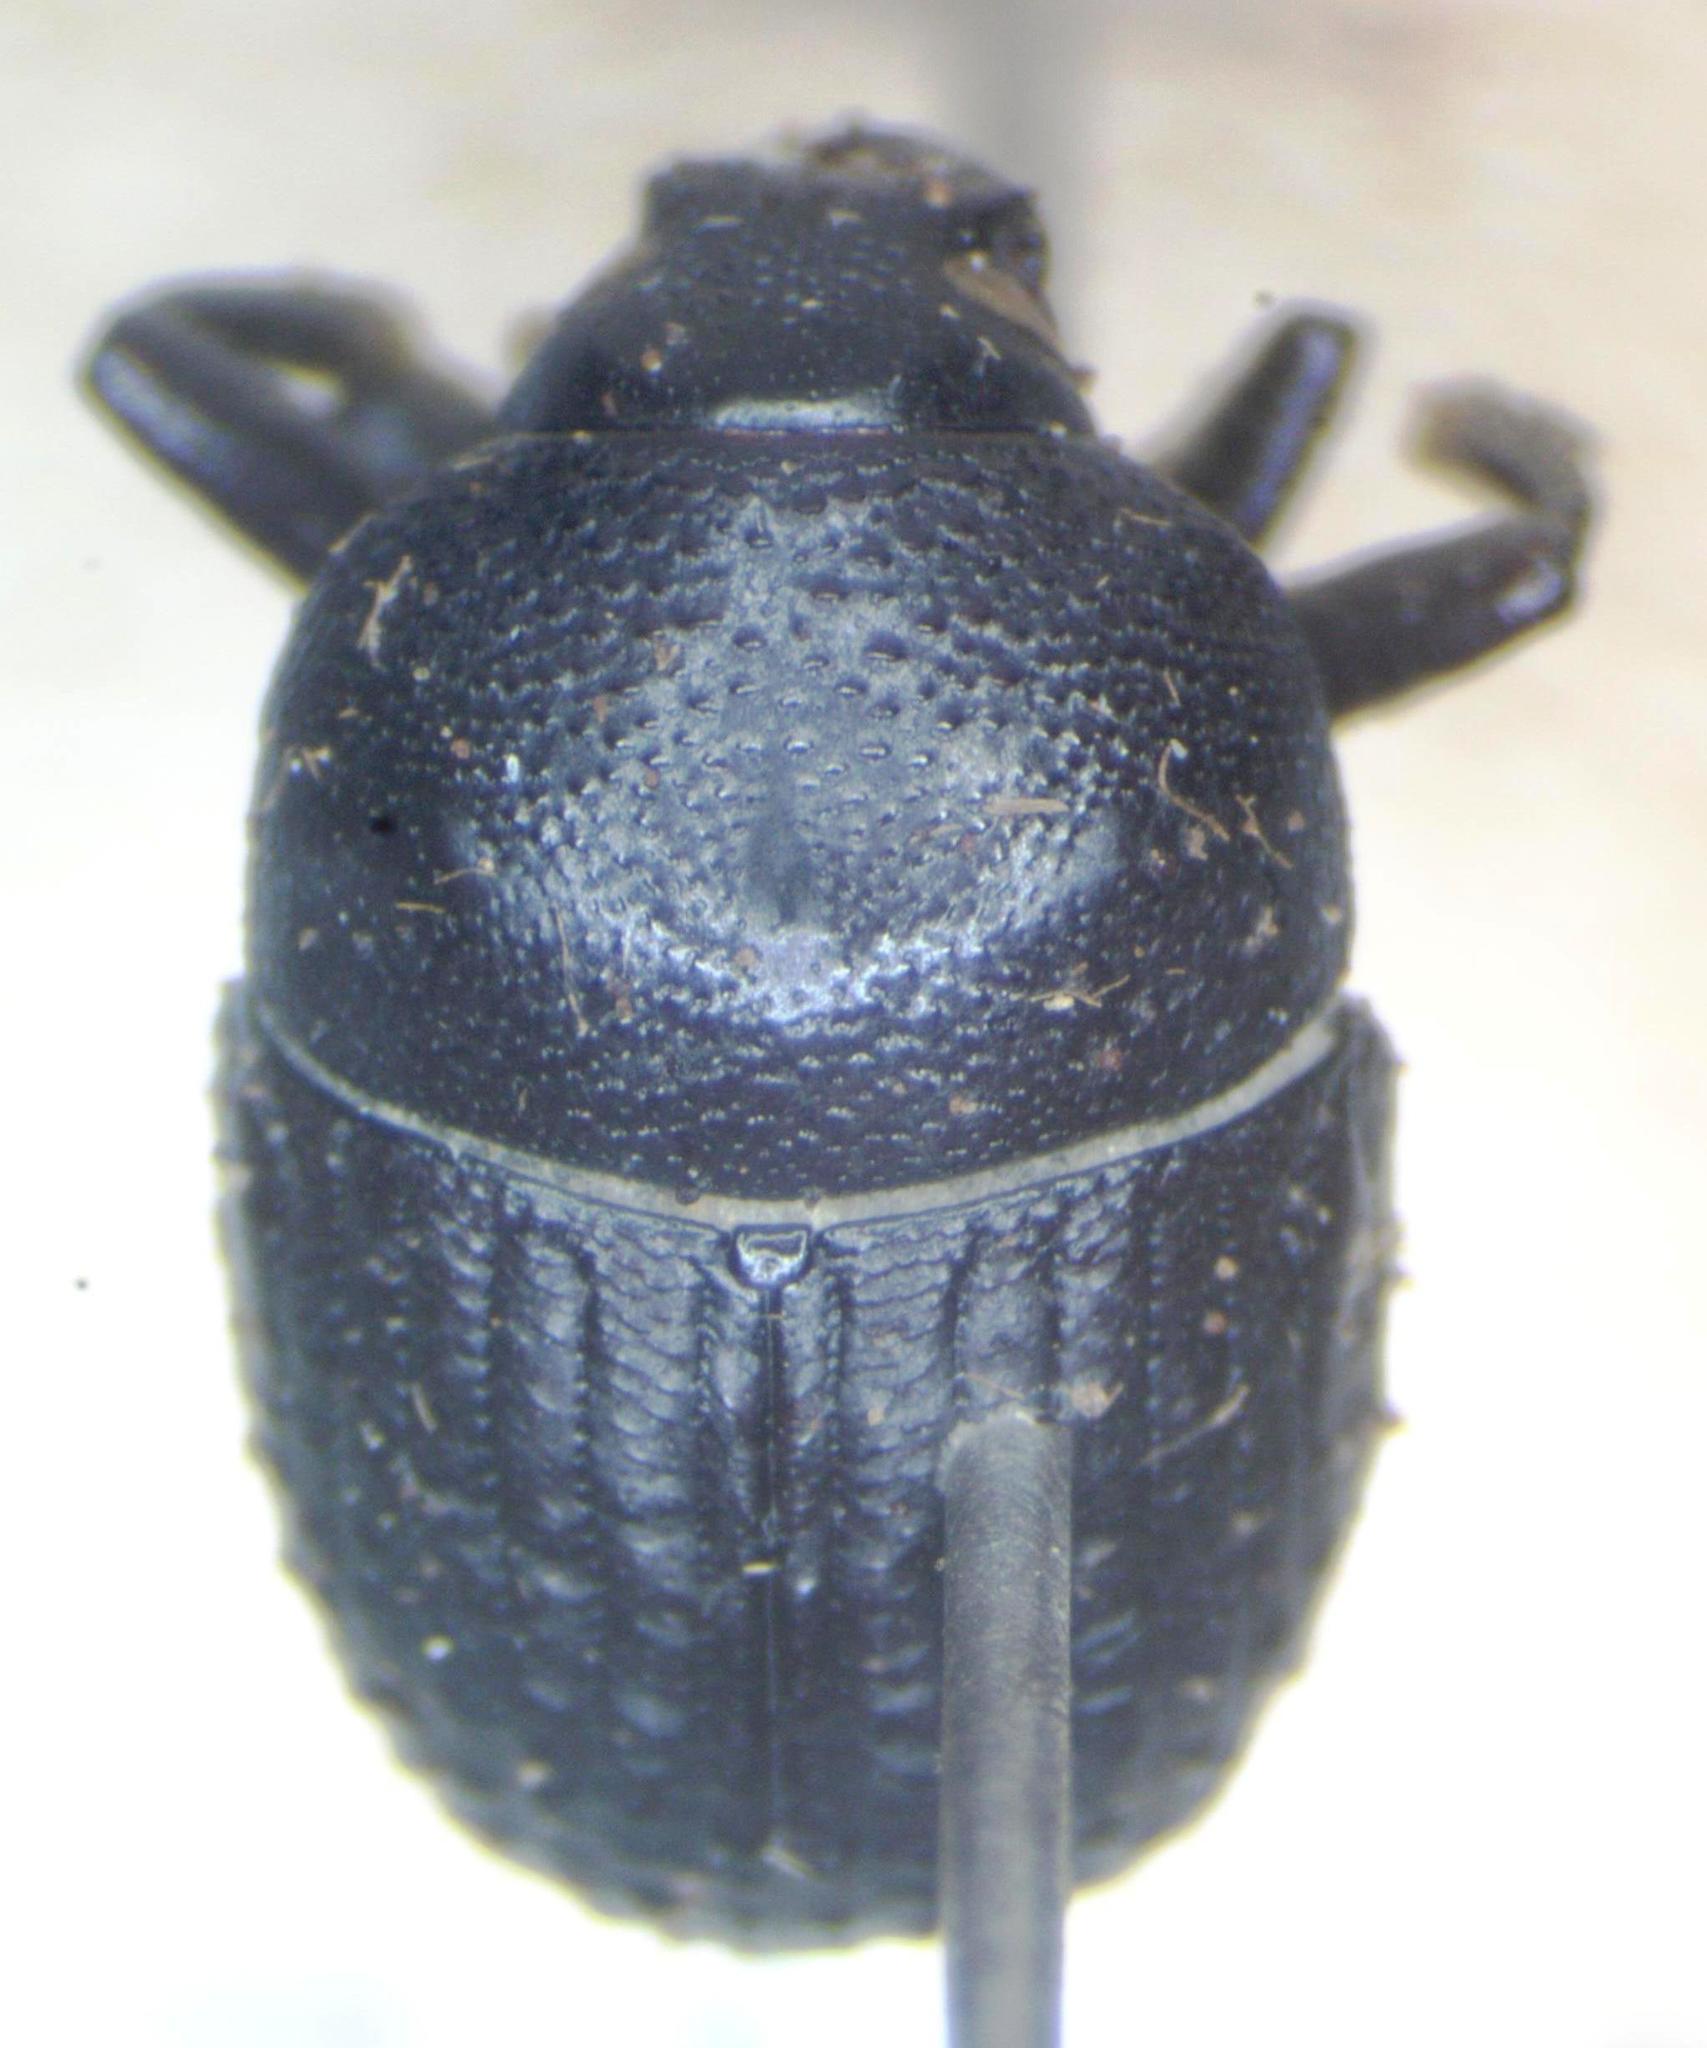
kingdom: Animalia
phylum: Arthropoda
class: Insecta
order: Coleoptera
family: Curculionidae
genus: Phloeoborus
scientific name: Phloeoborus punctatorugosus
